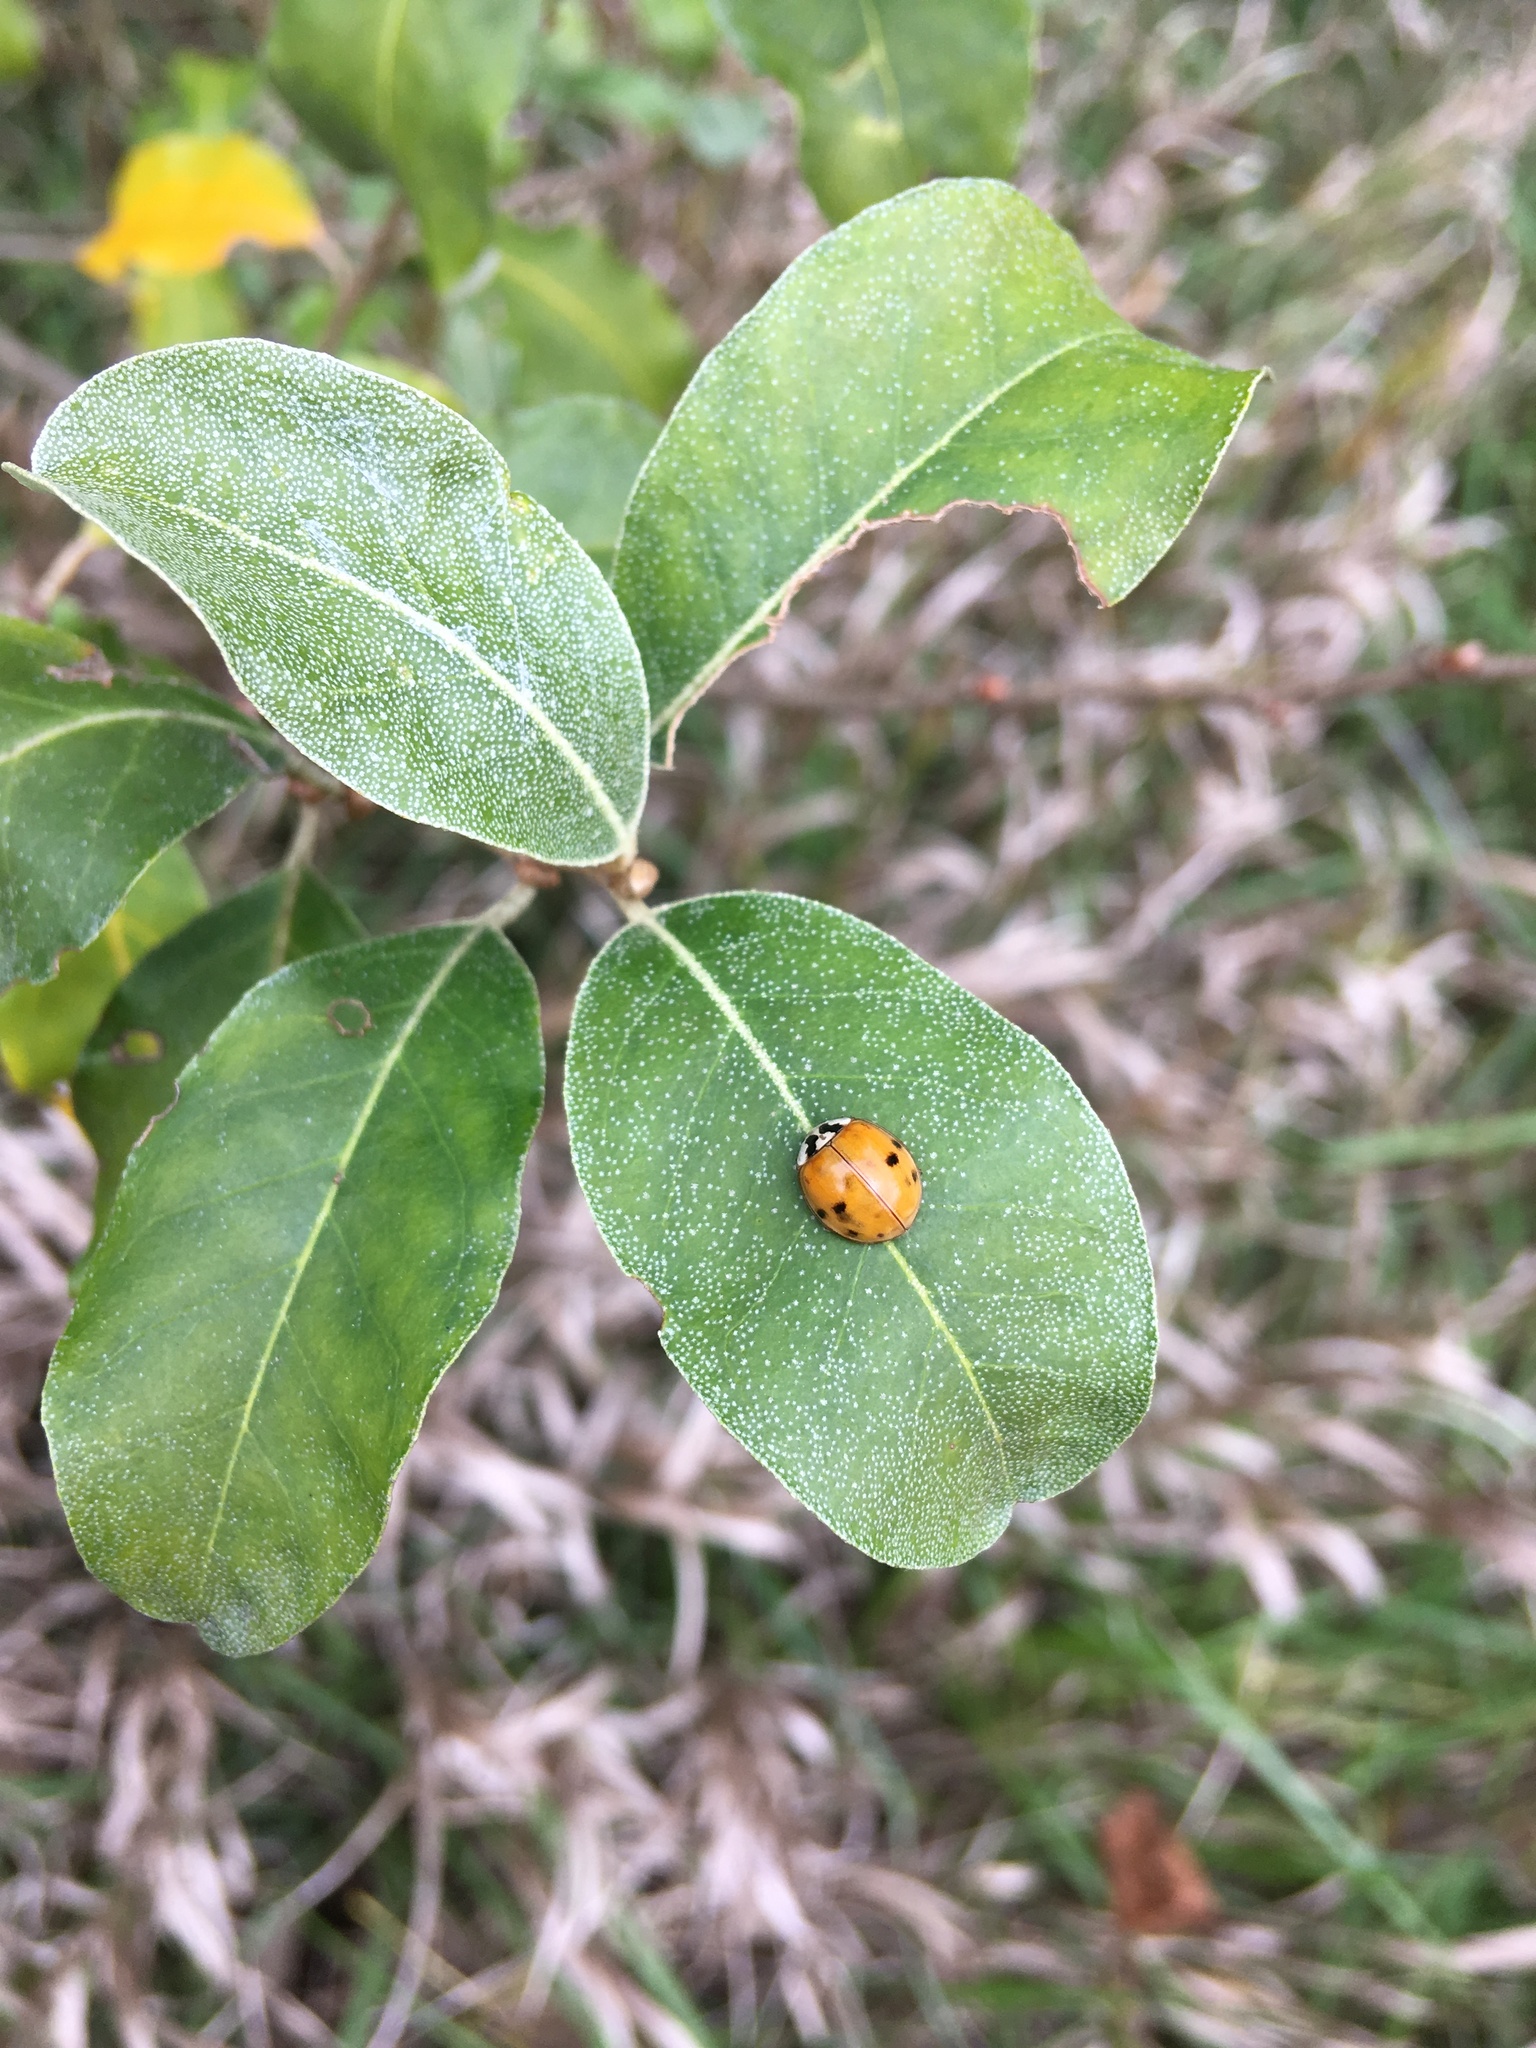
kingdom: Animalia
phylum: Arthropoda
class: Insecta
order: Coleoptera
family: Coccinellidae
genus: Harmonia
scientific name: Harmonia axyridis
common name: Harlequin ladybird
